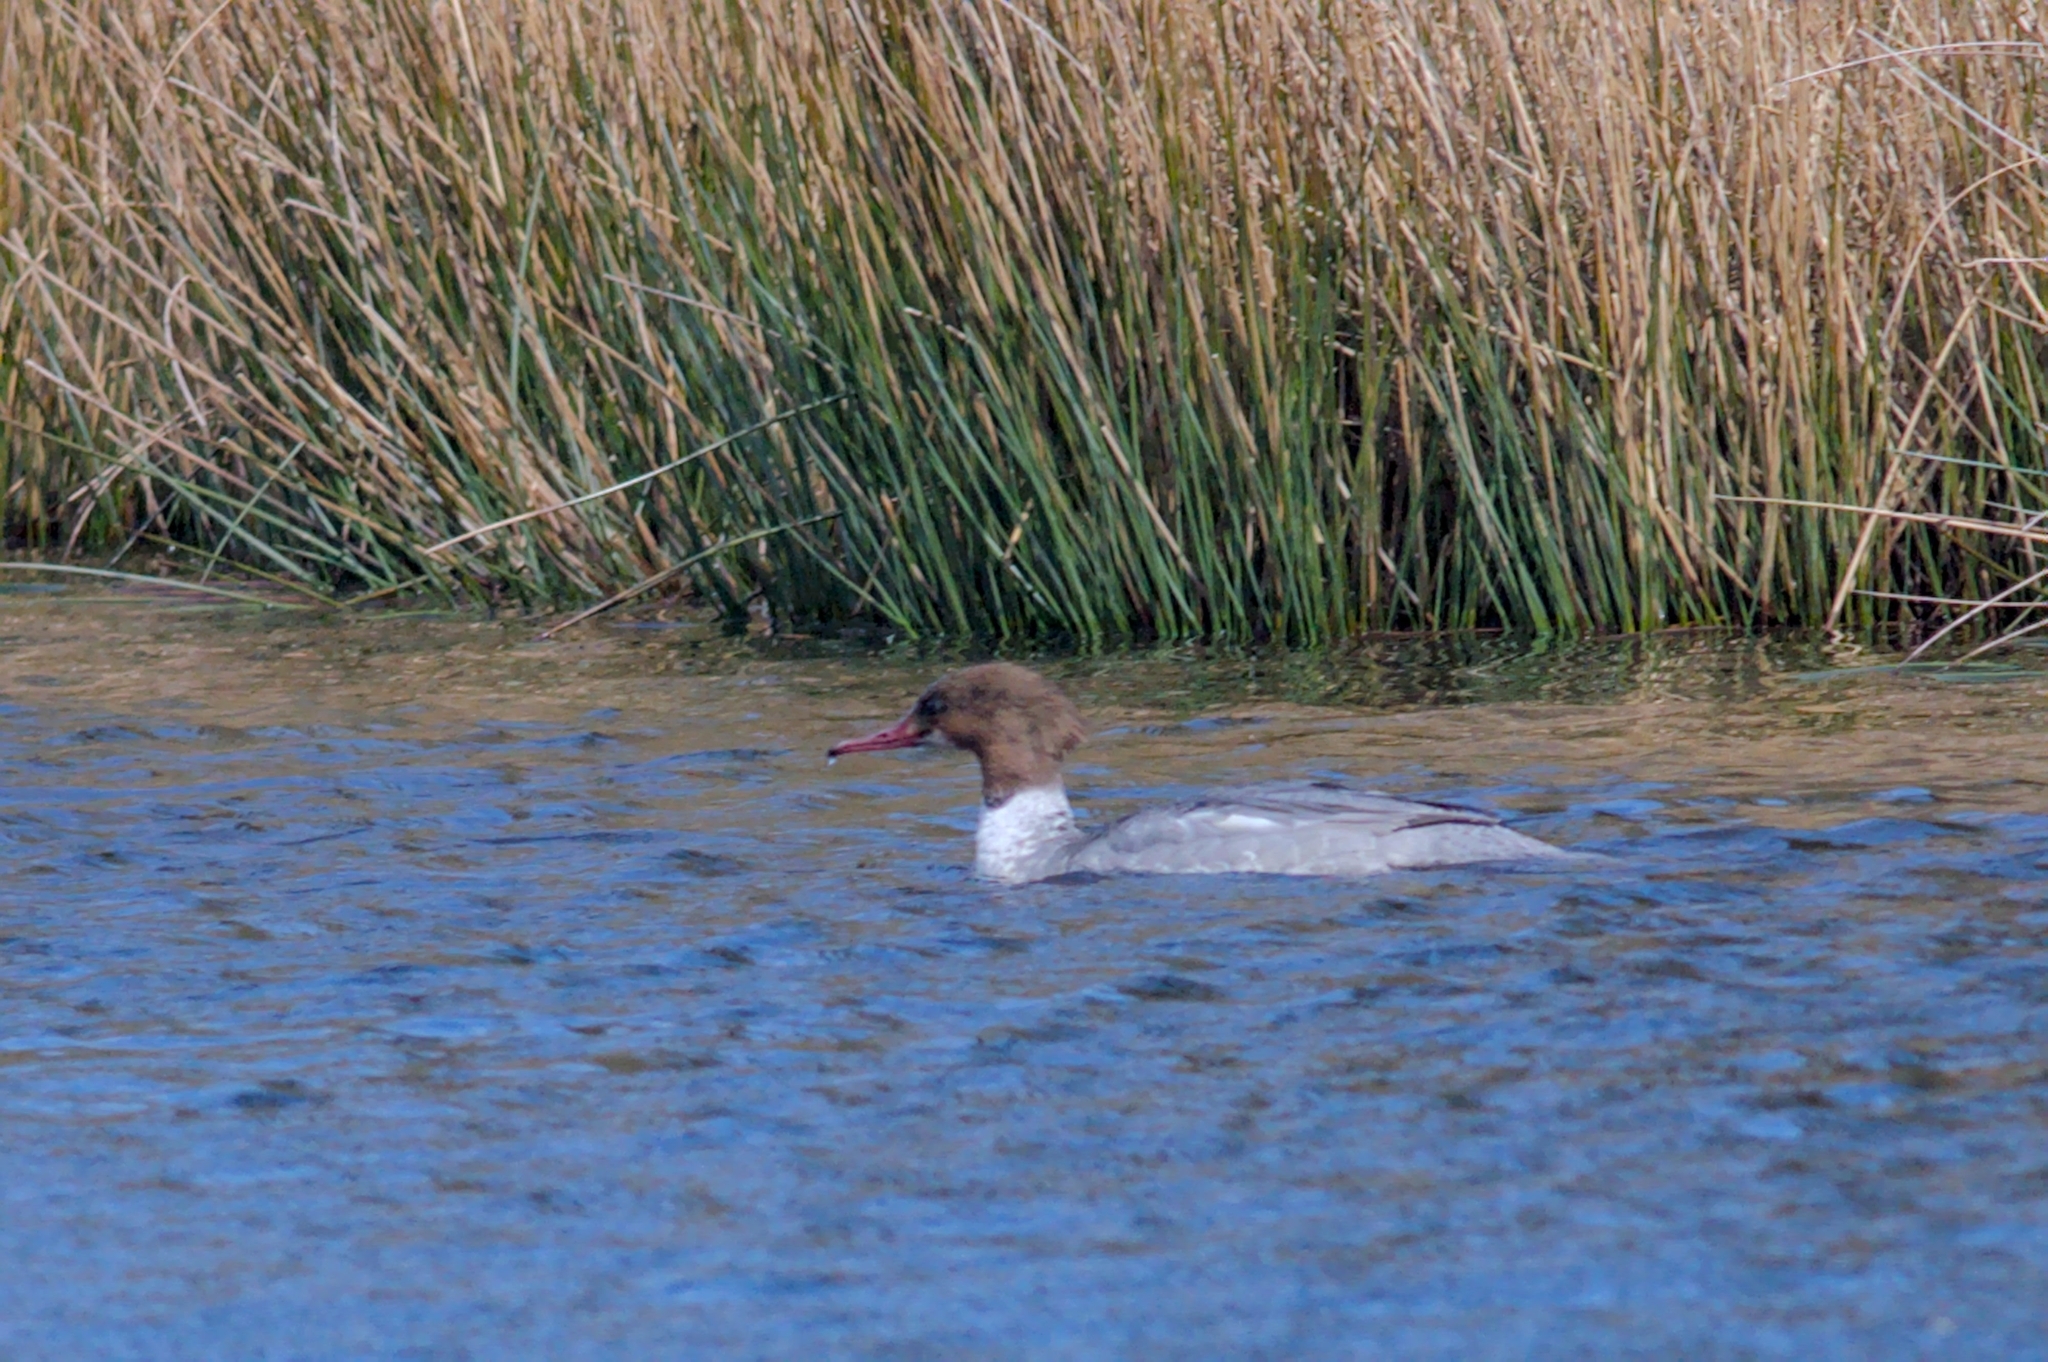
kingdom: Animalia
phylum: Chordata
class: Aves
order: Anseriformes
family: Anatidae
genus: Mergus
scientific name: Mergus merganser
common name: Common merganser
